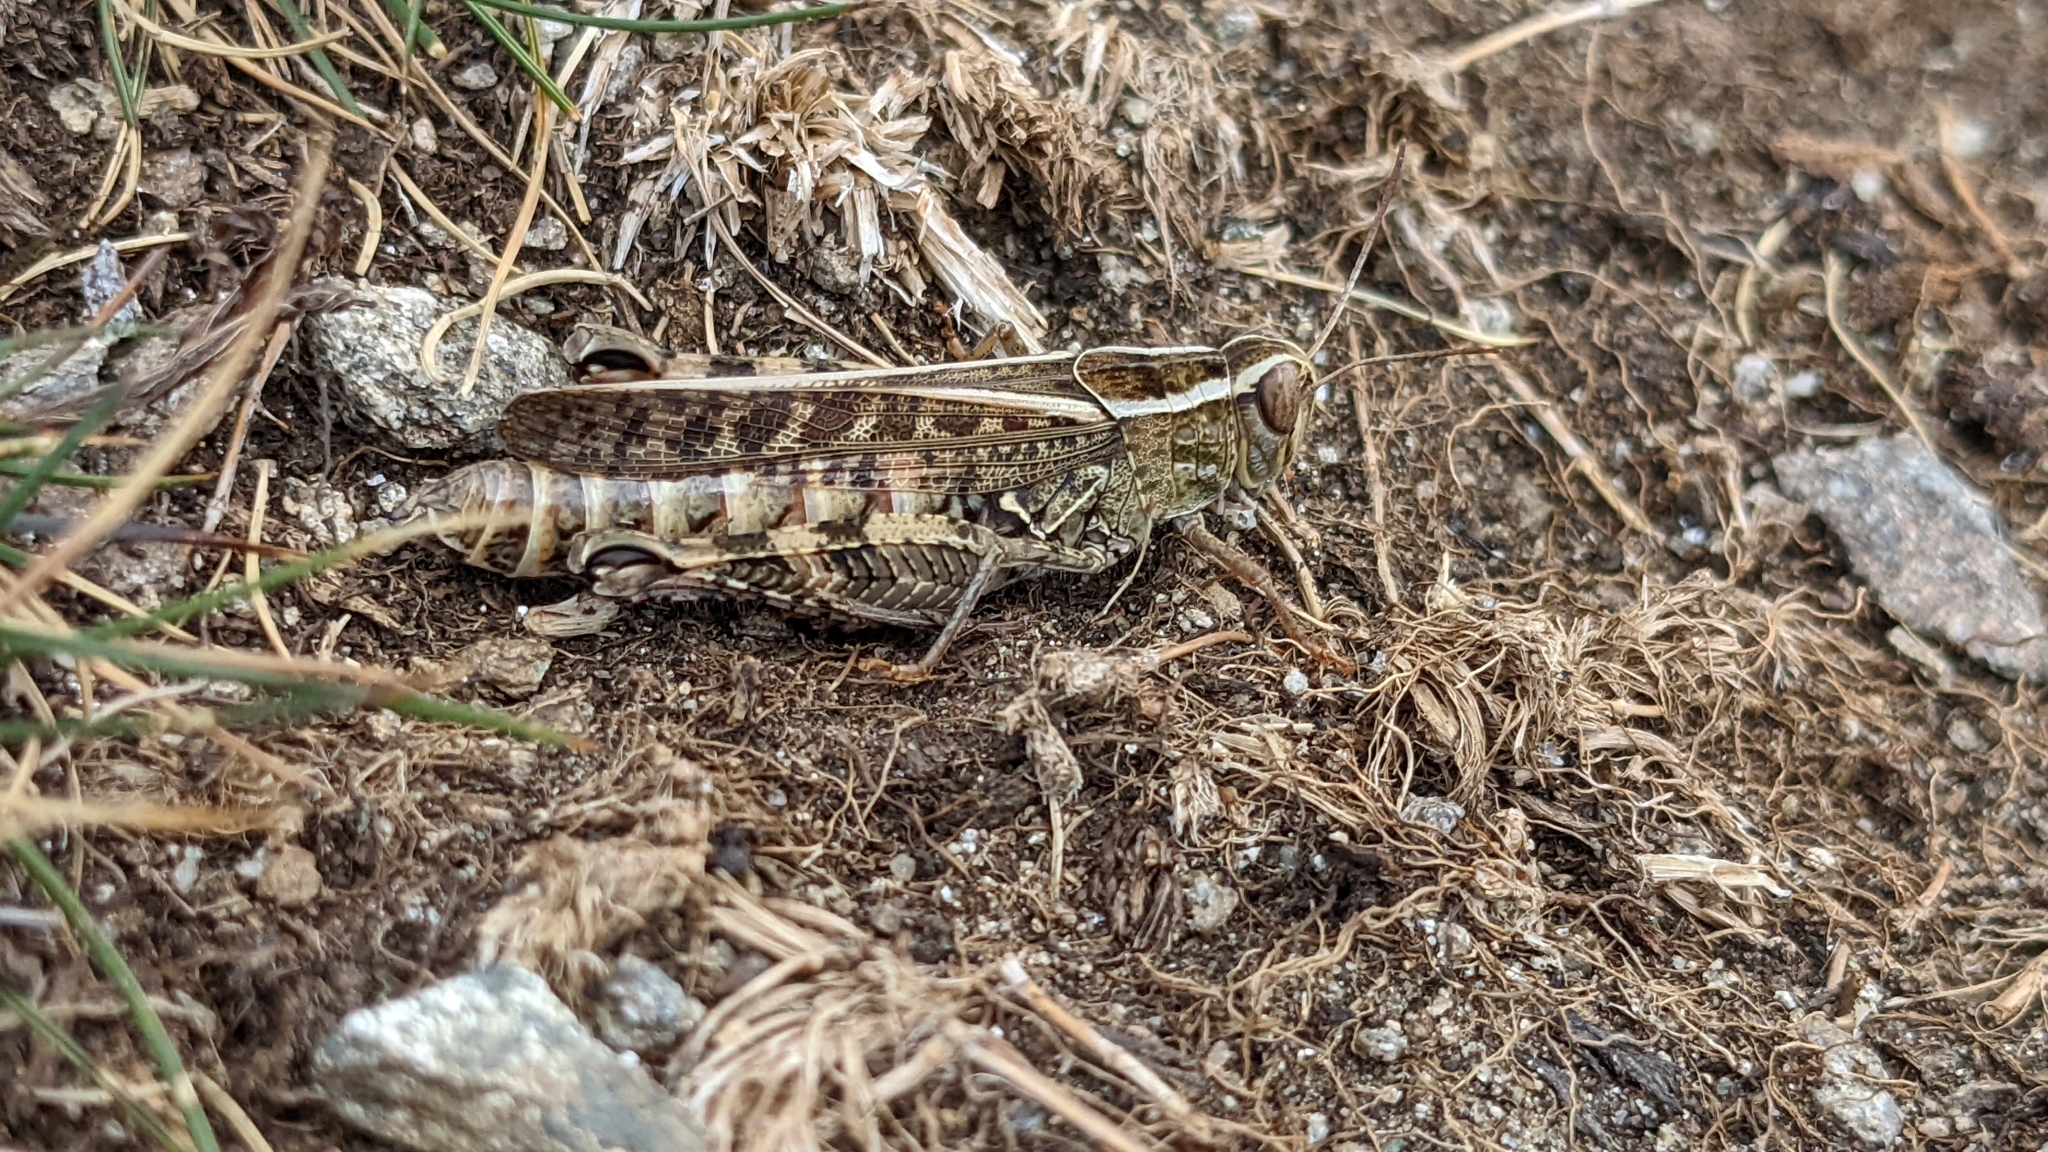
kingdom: Animalia
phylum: Arthropoda
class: Insecta
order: Orthoptera
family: Acrididae
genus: Calliptamus
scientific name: Calliptamus italicus
